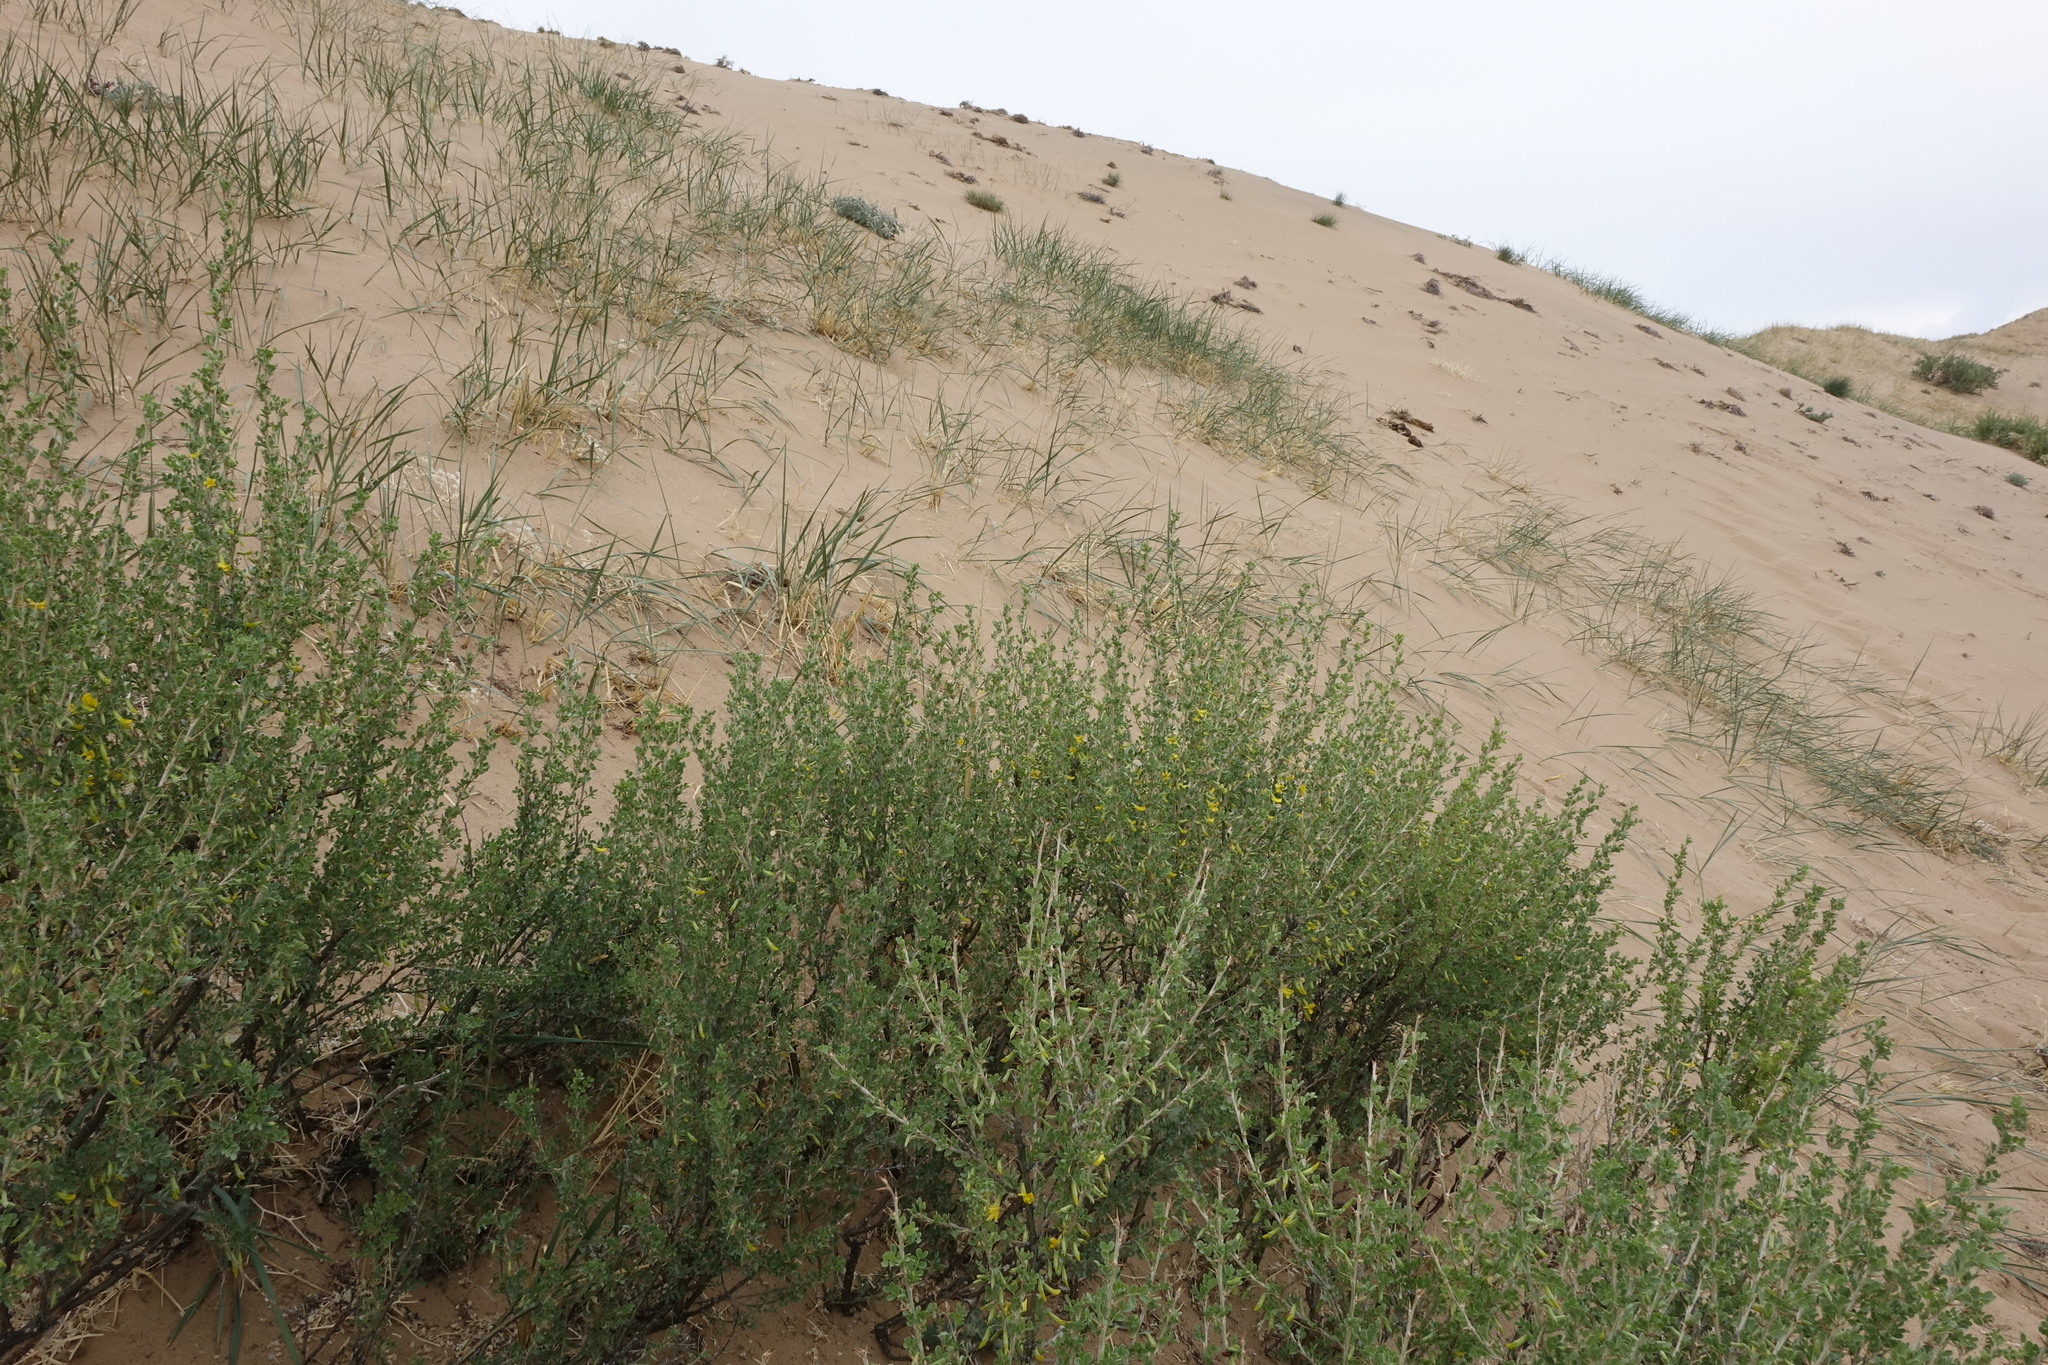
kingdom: Plantae
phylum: Tracheophyta
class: Magnoliopsida
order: Fabales
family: Fabaceae
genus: Caragana
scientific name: Caragana bungei
